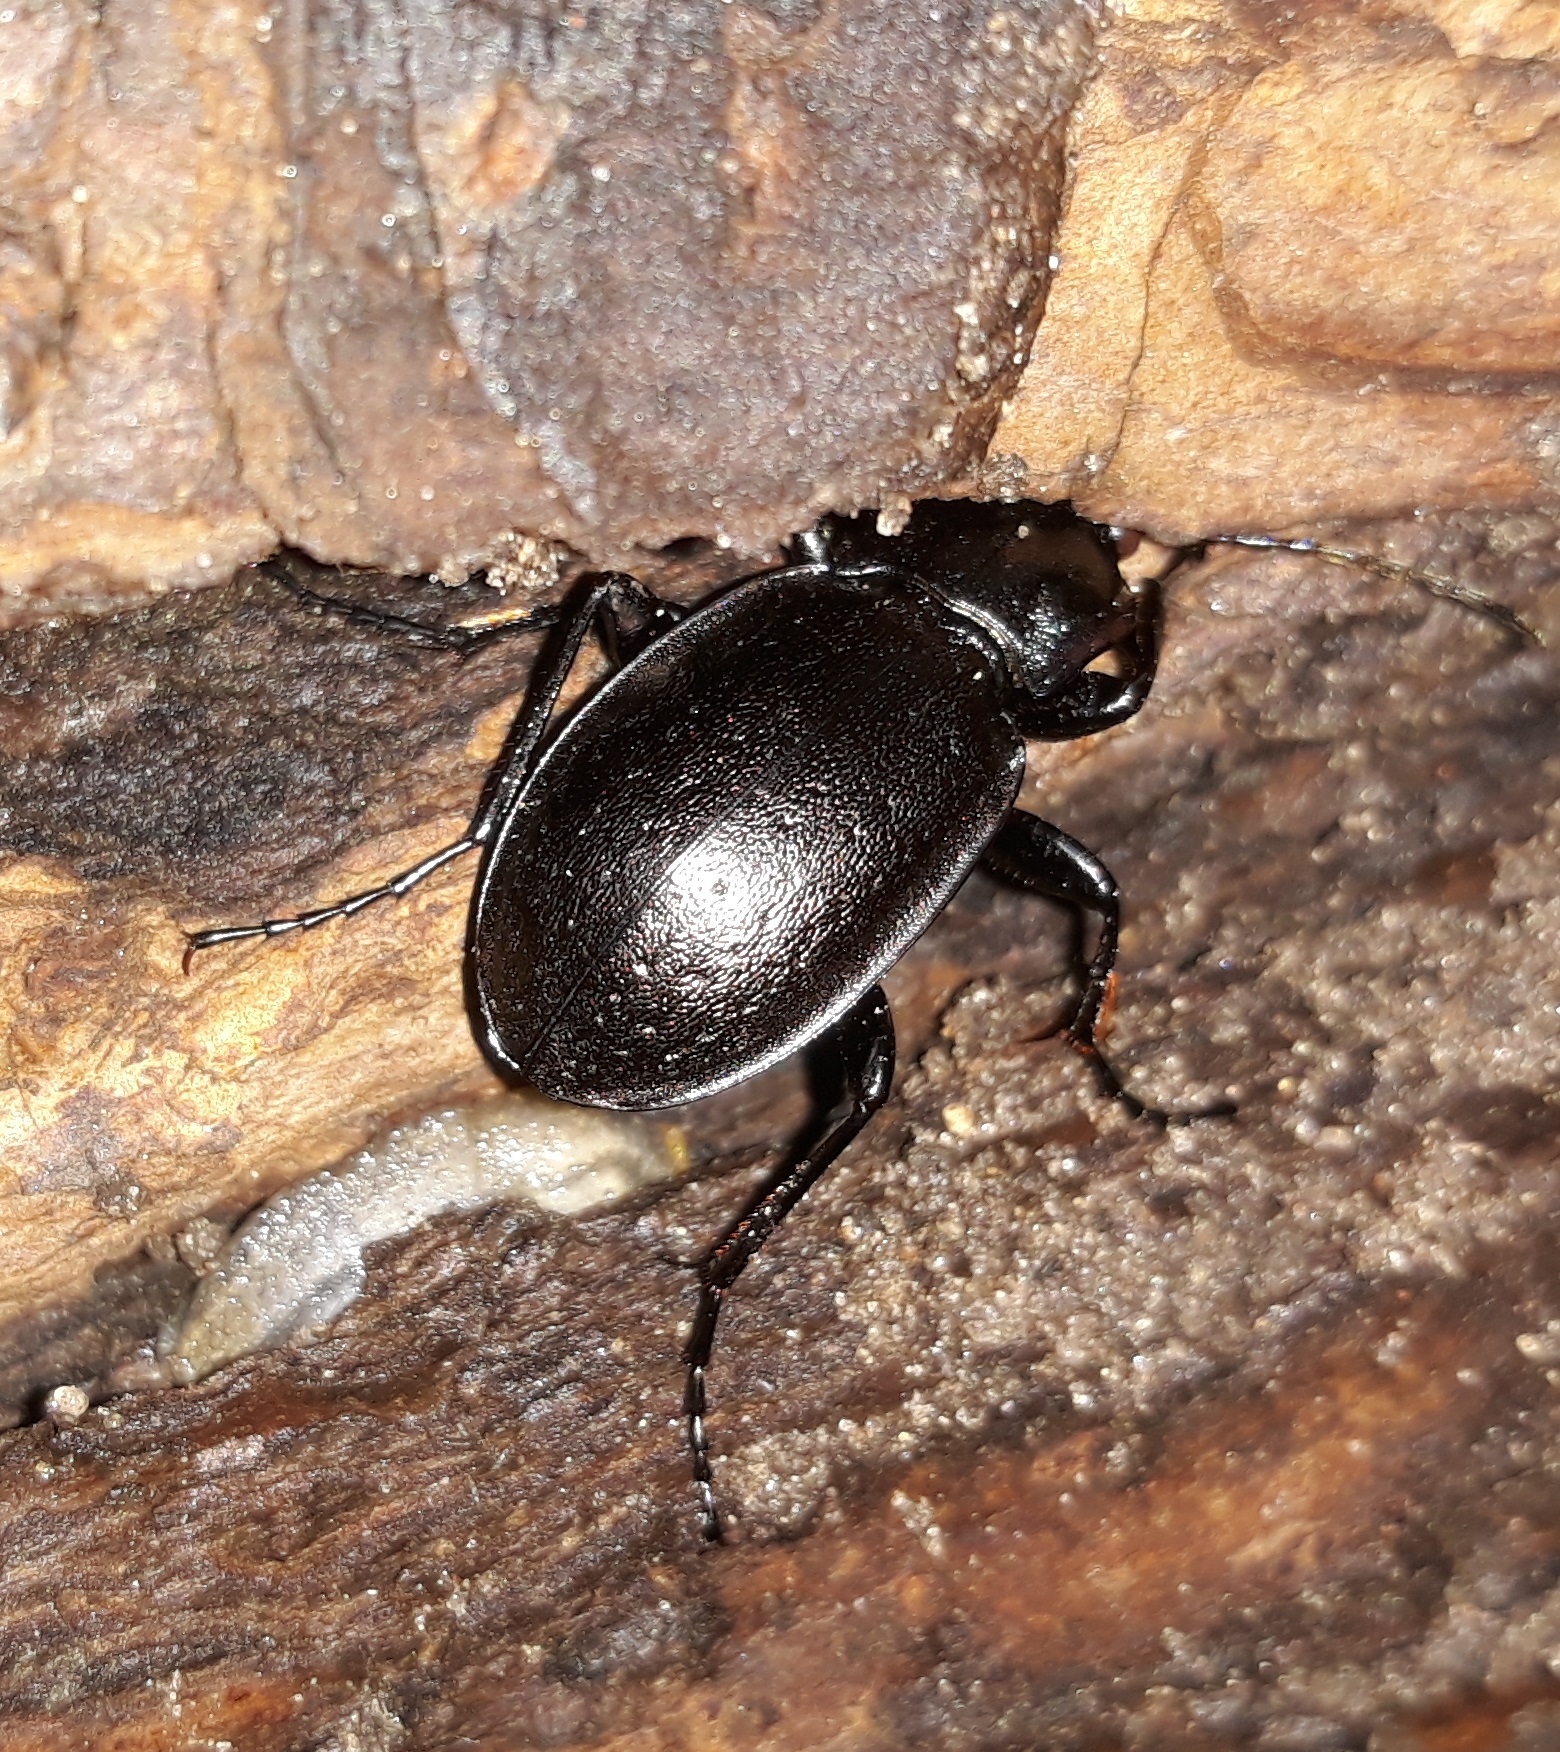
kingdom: Animalia
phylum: Arthropoda
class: Insecta
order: Coleoptera
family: Carabidae
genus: Carabus
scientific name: Carabus nemoralis
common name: European ground beetle
